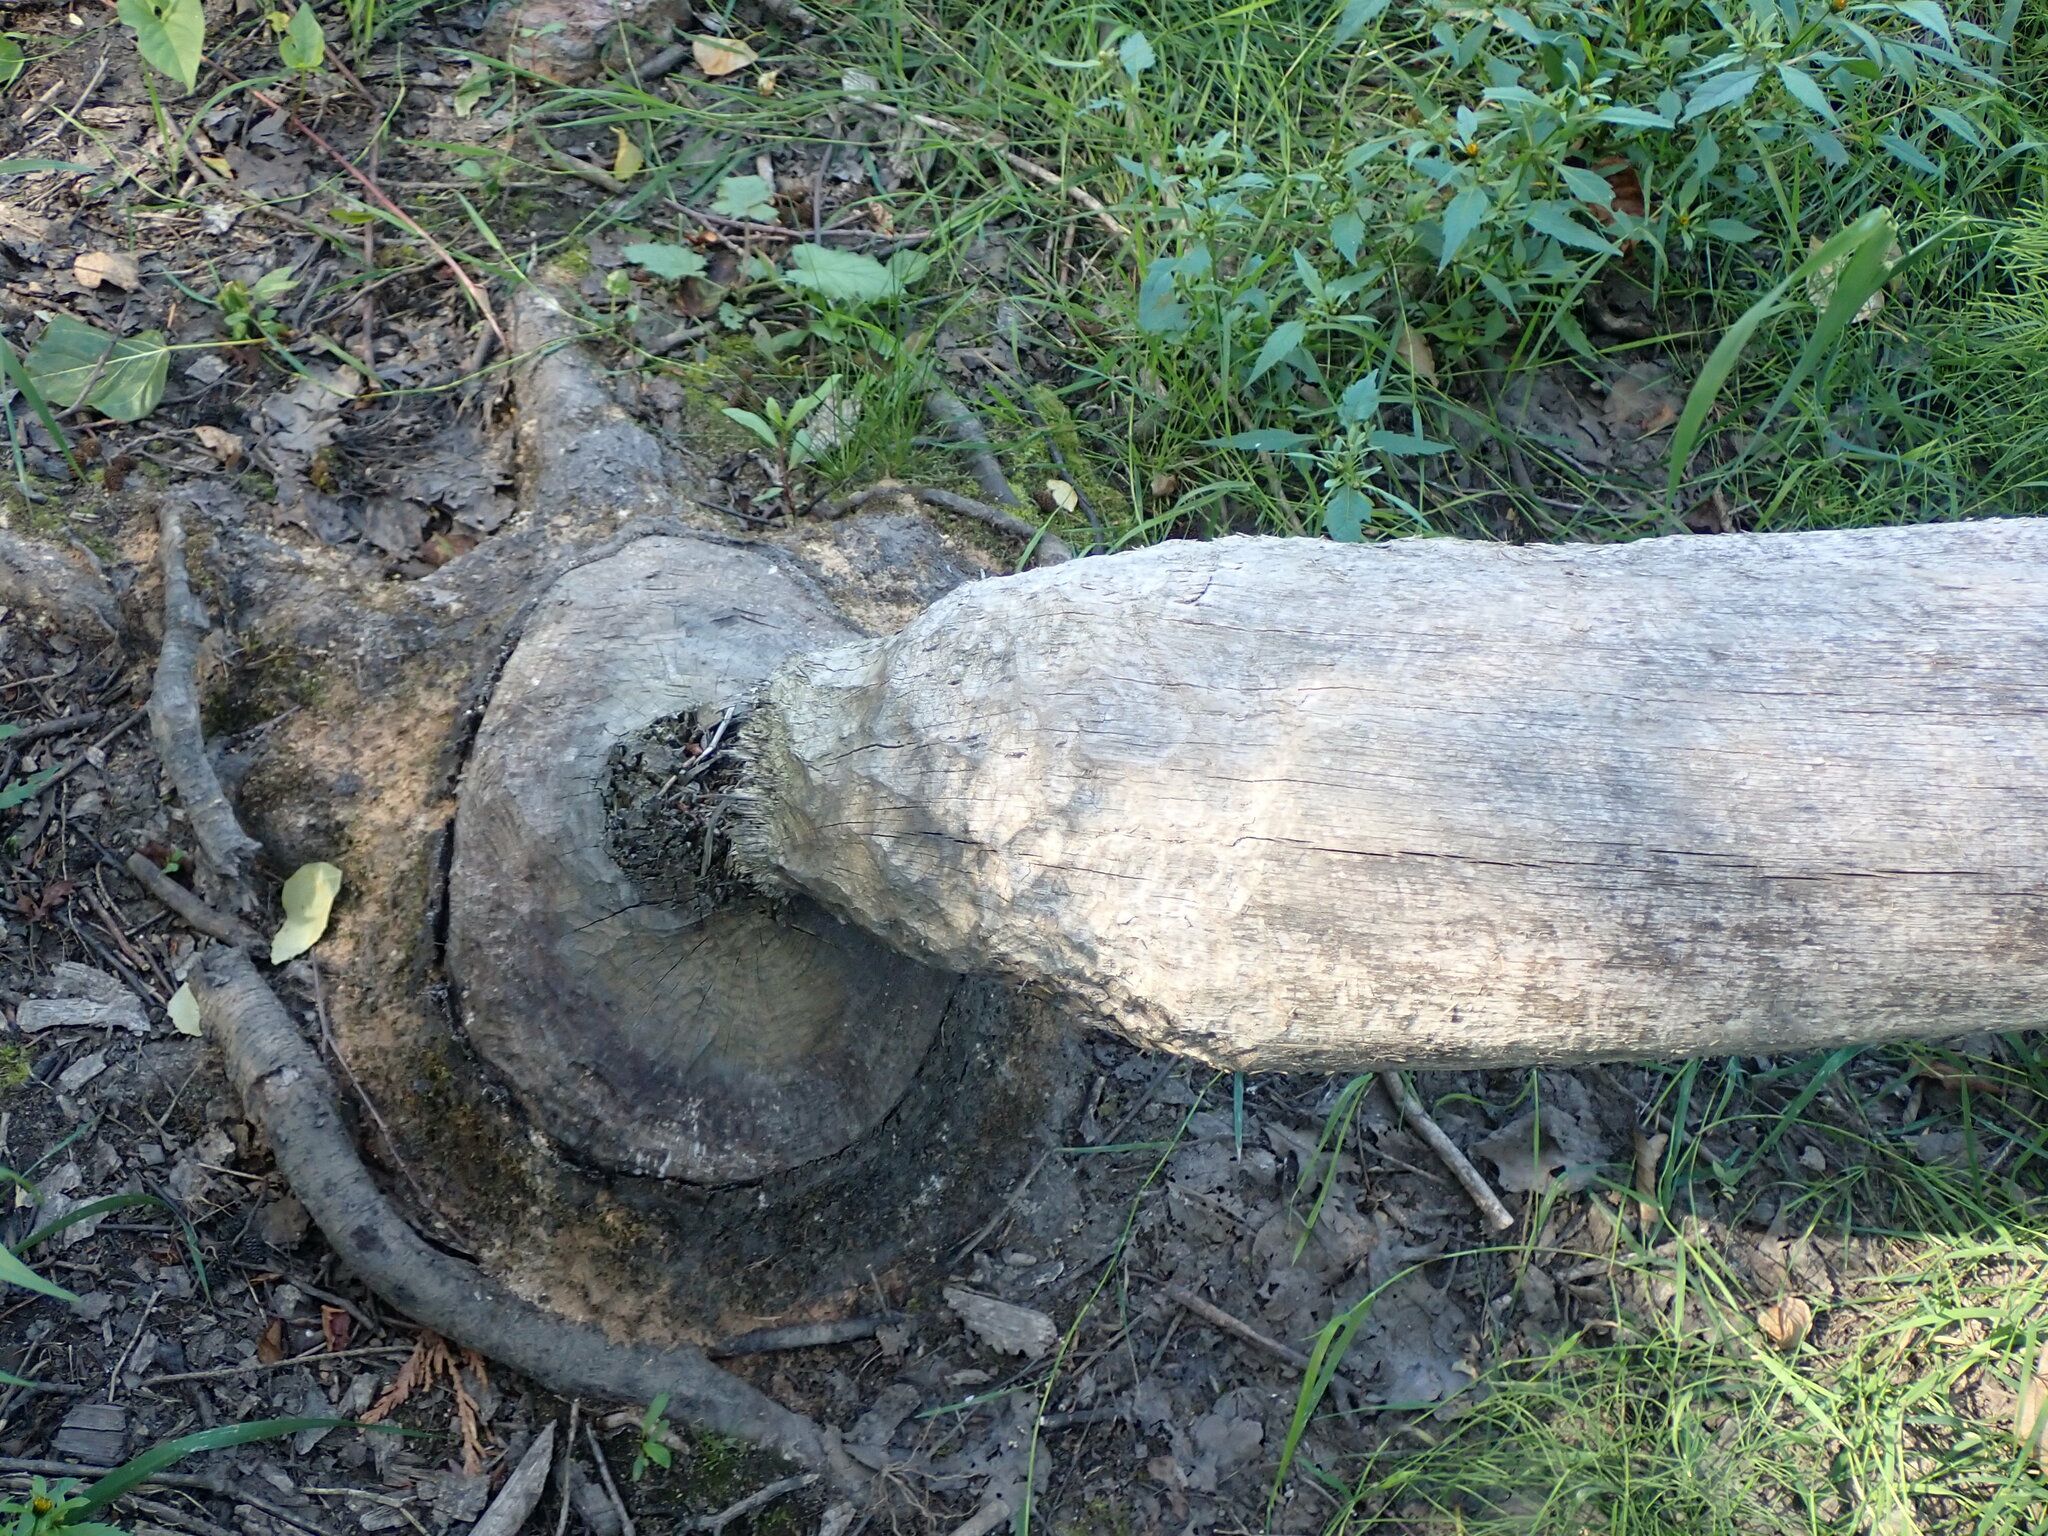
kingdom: Animalia
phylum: Chordata
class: Mammalia
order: Rodentia
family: Castoridae
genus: Castor
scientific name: Castor canadensis
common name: American beaver
